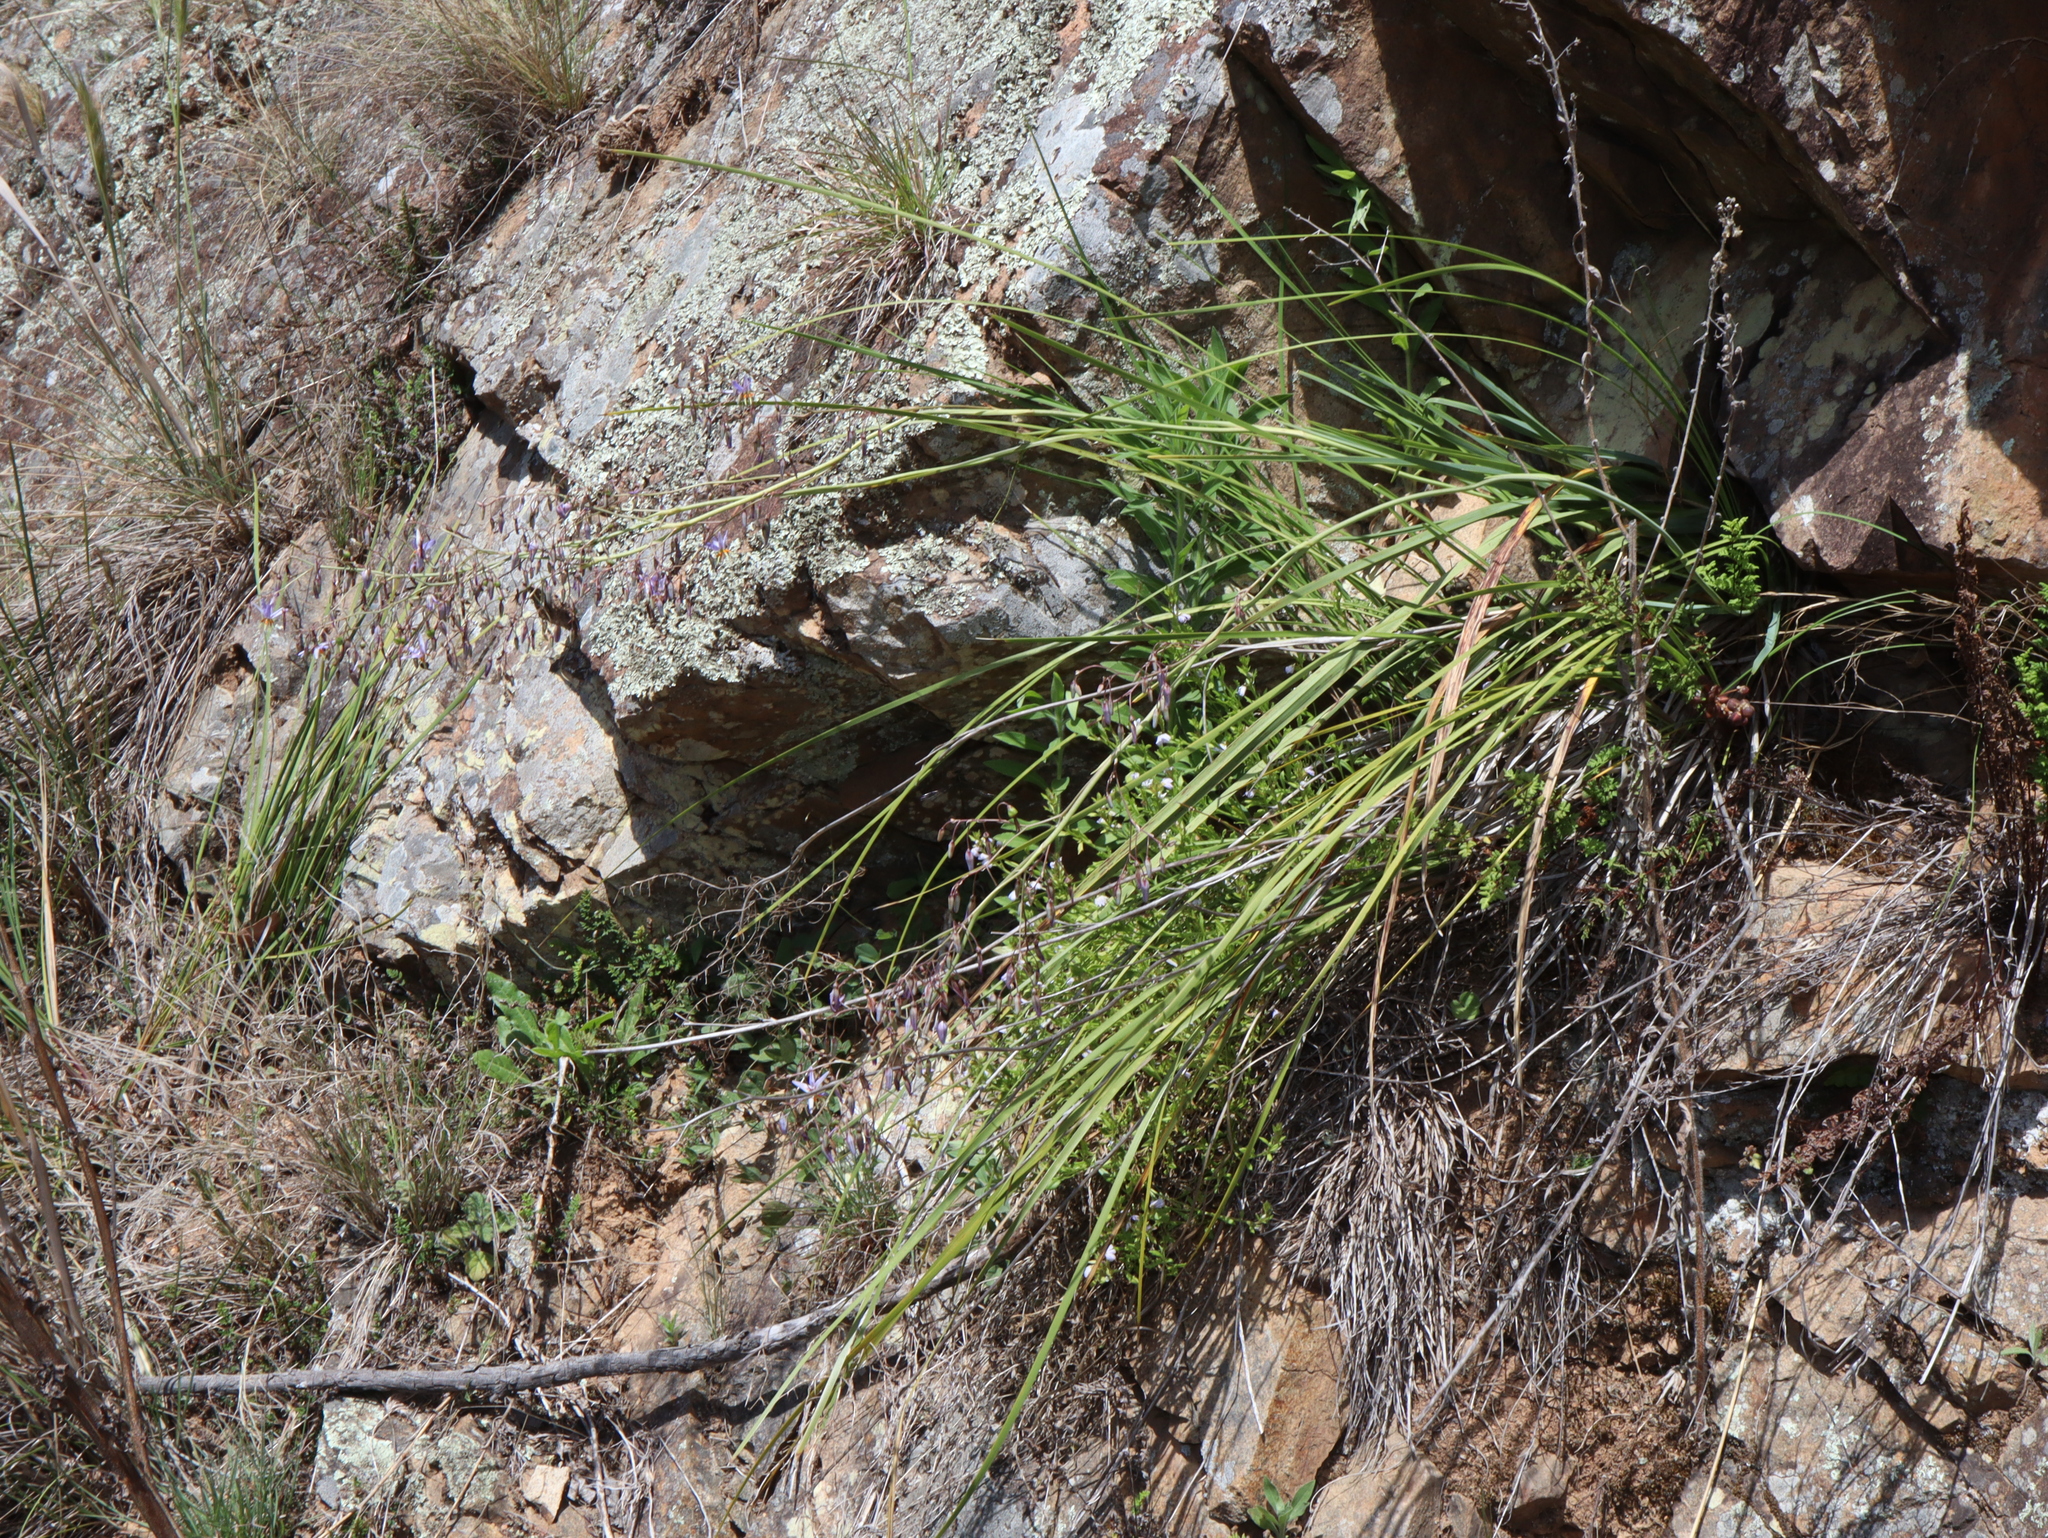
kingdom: Plantae
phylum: Tracheophyta
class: Liliopsida
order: Asparagales
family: Asparagaceae
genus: Lomandra
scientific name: Lomandra multiflora
